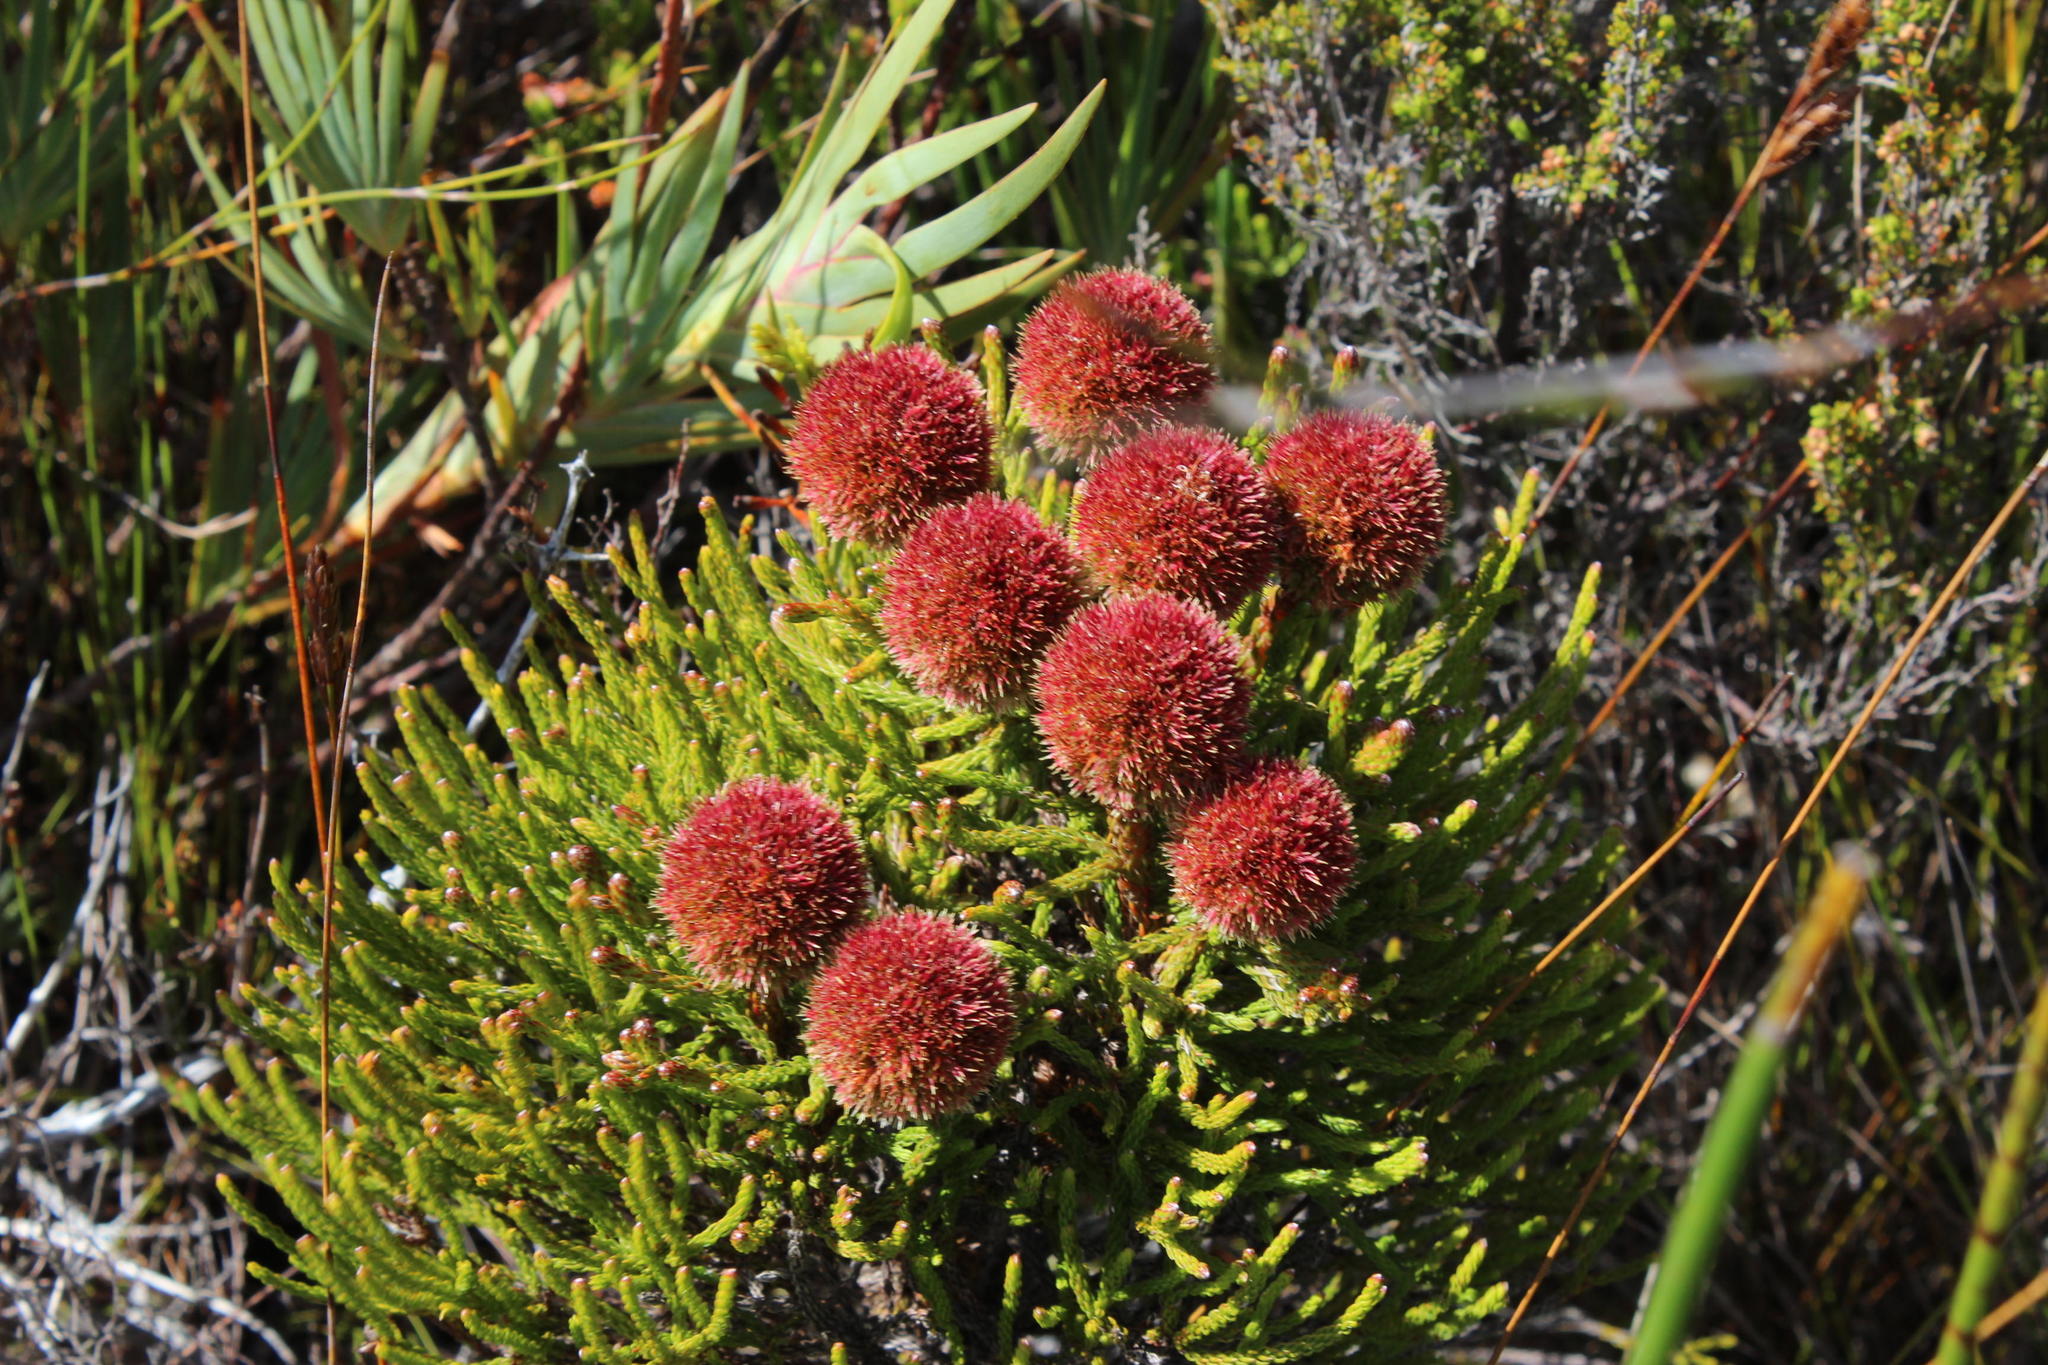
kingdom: Plantae
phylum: Tracheophyta
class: Magnoliopsida
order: Bruniales
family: Bruniaceae
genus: Brunia
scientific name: Brunia fragarioides
